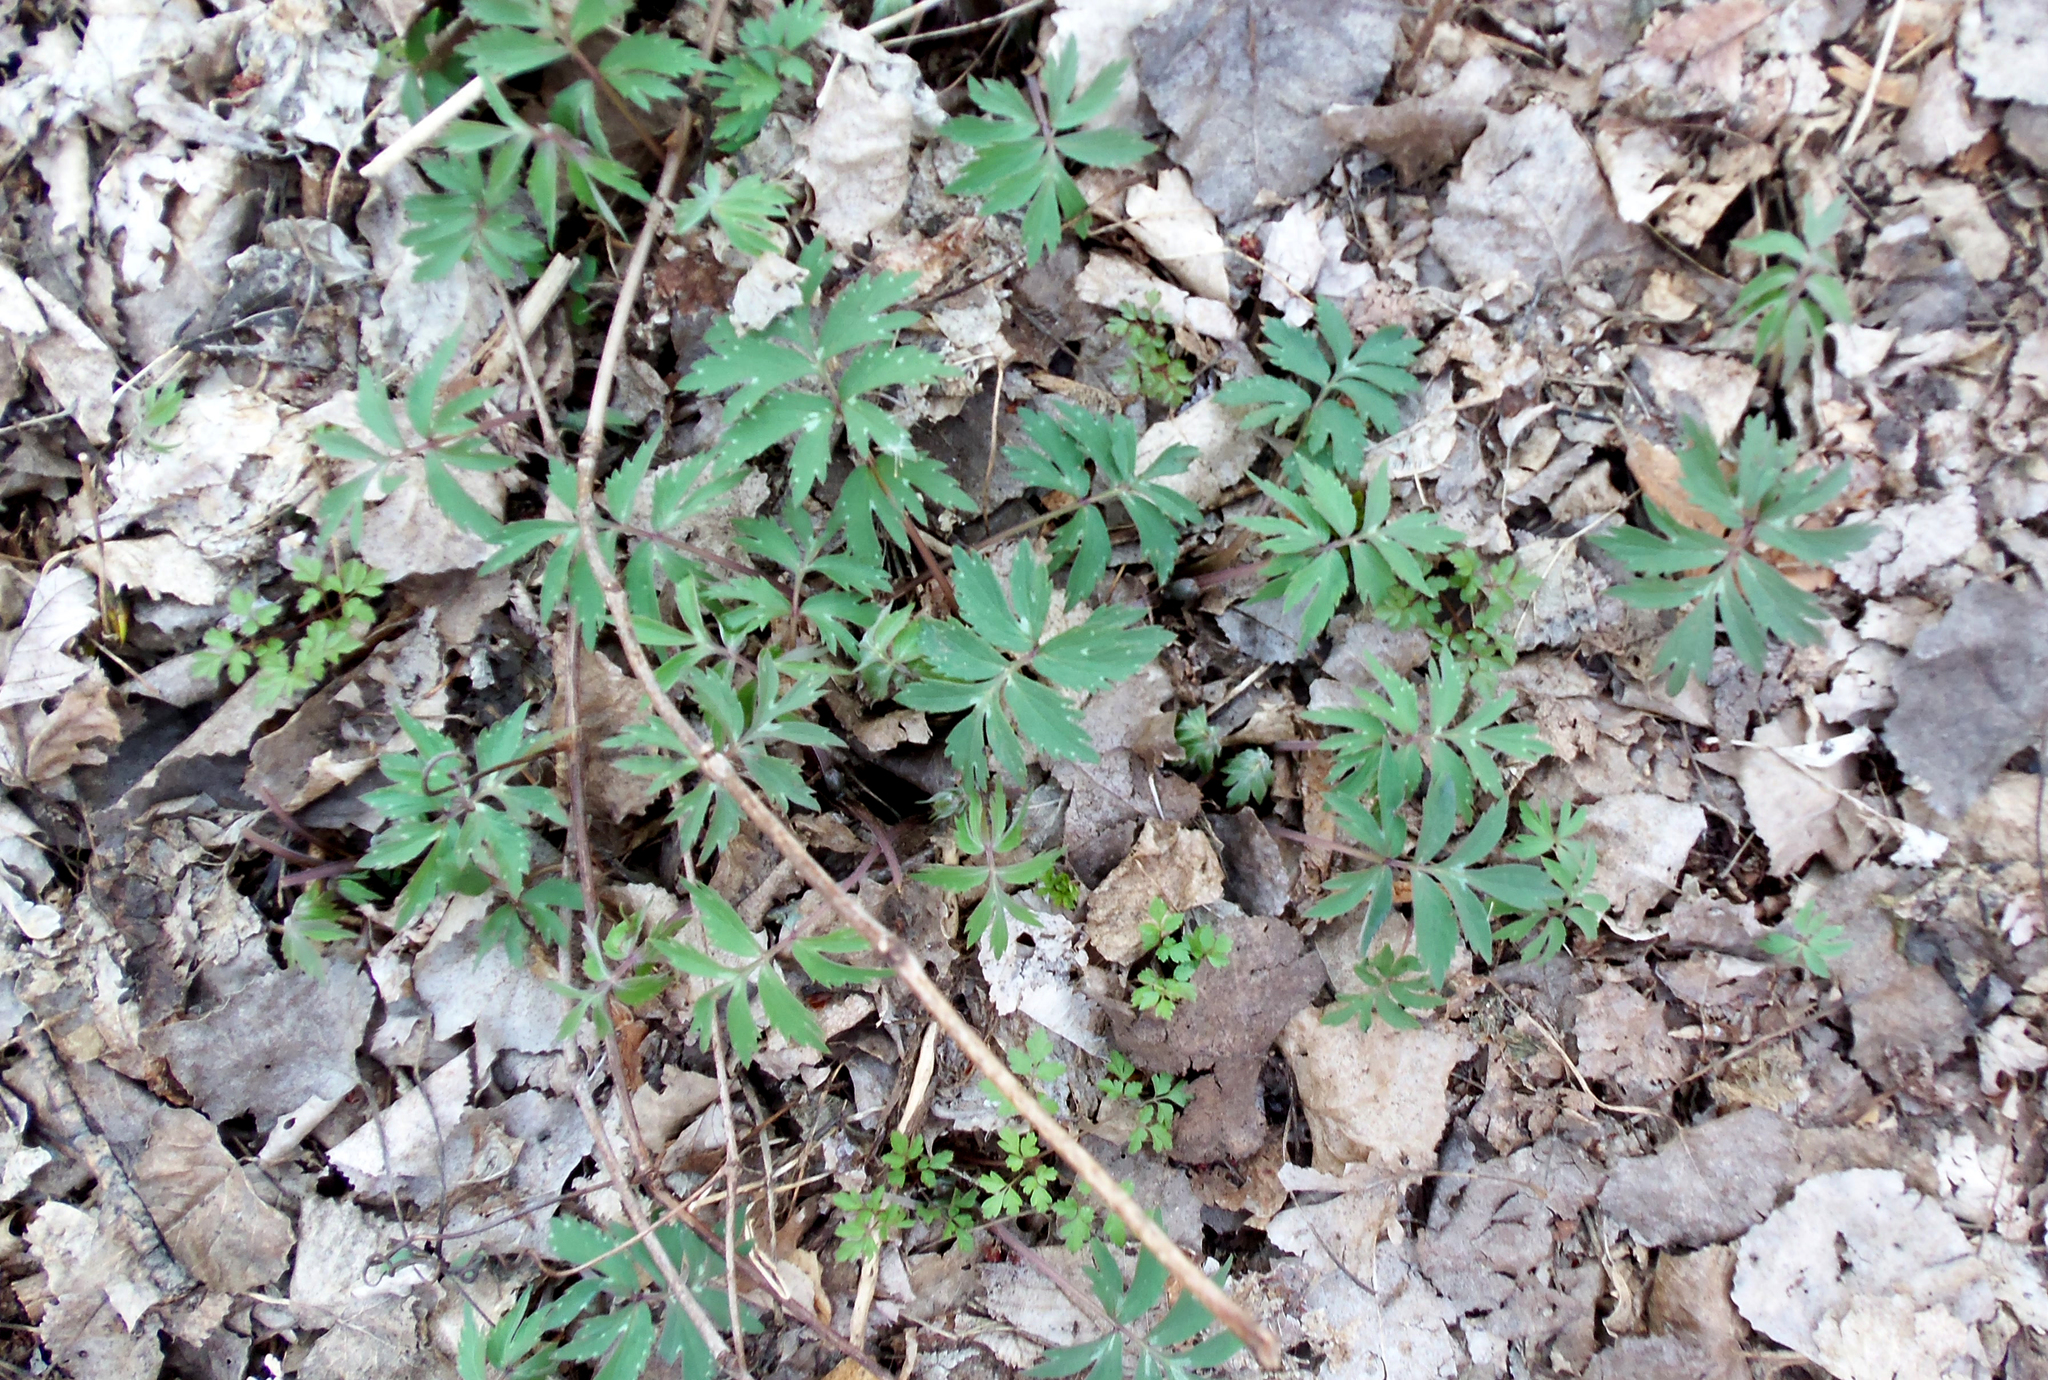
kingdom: Plantae
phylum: Tracheophyta
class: Magnoliopsida
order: Boraginales
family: Hydrophyllaceae
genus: Hydrophyllum
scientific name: Hydrophyllum virginianum
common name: Virginia waterleaf
